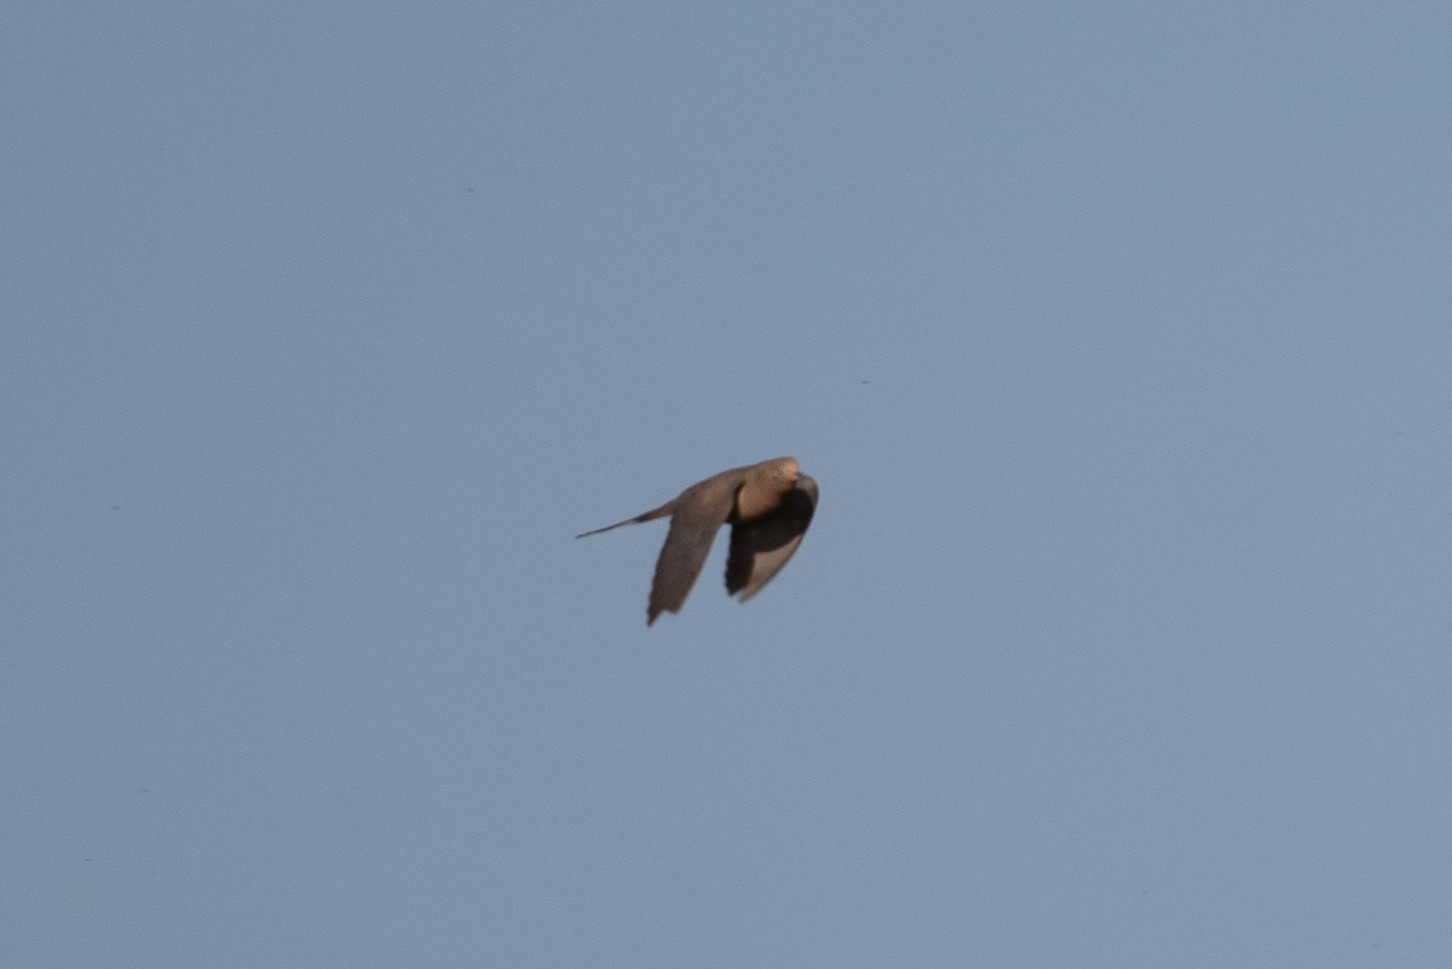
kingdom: Animalia
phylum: Chordata
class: Aves
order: Columbiformes
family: Columbidae
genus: Zenaida
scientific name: Zenaida macroura
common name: Mourning dove
